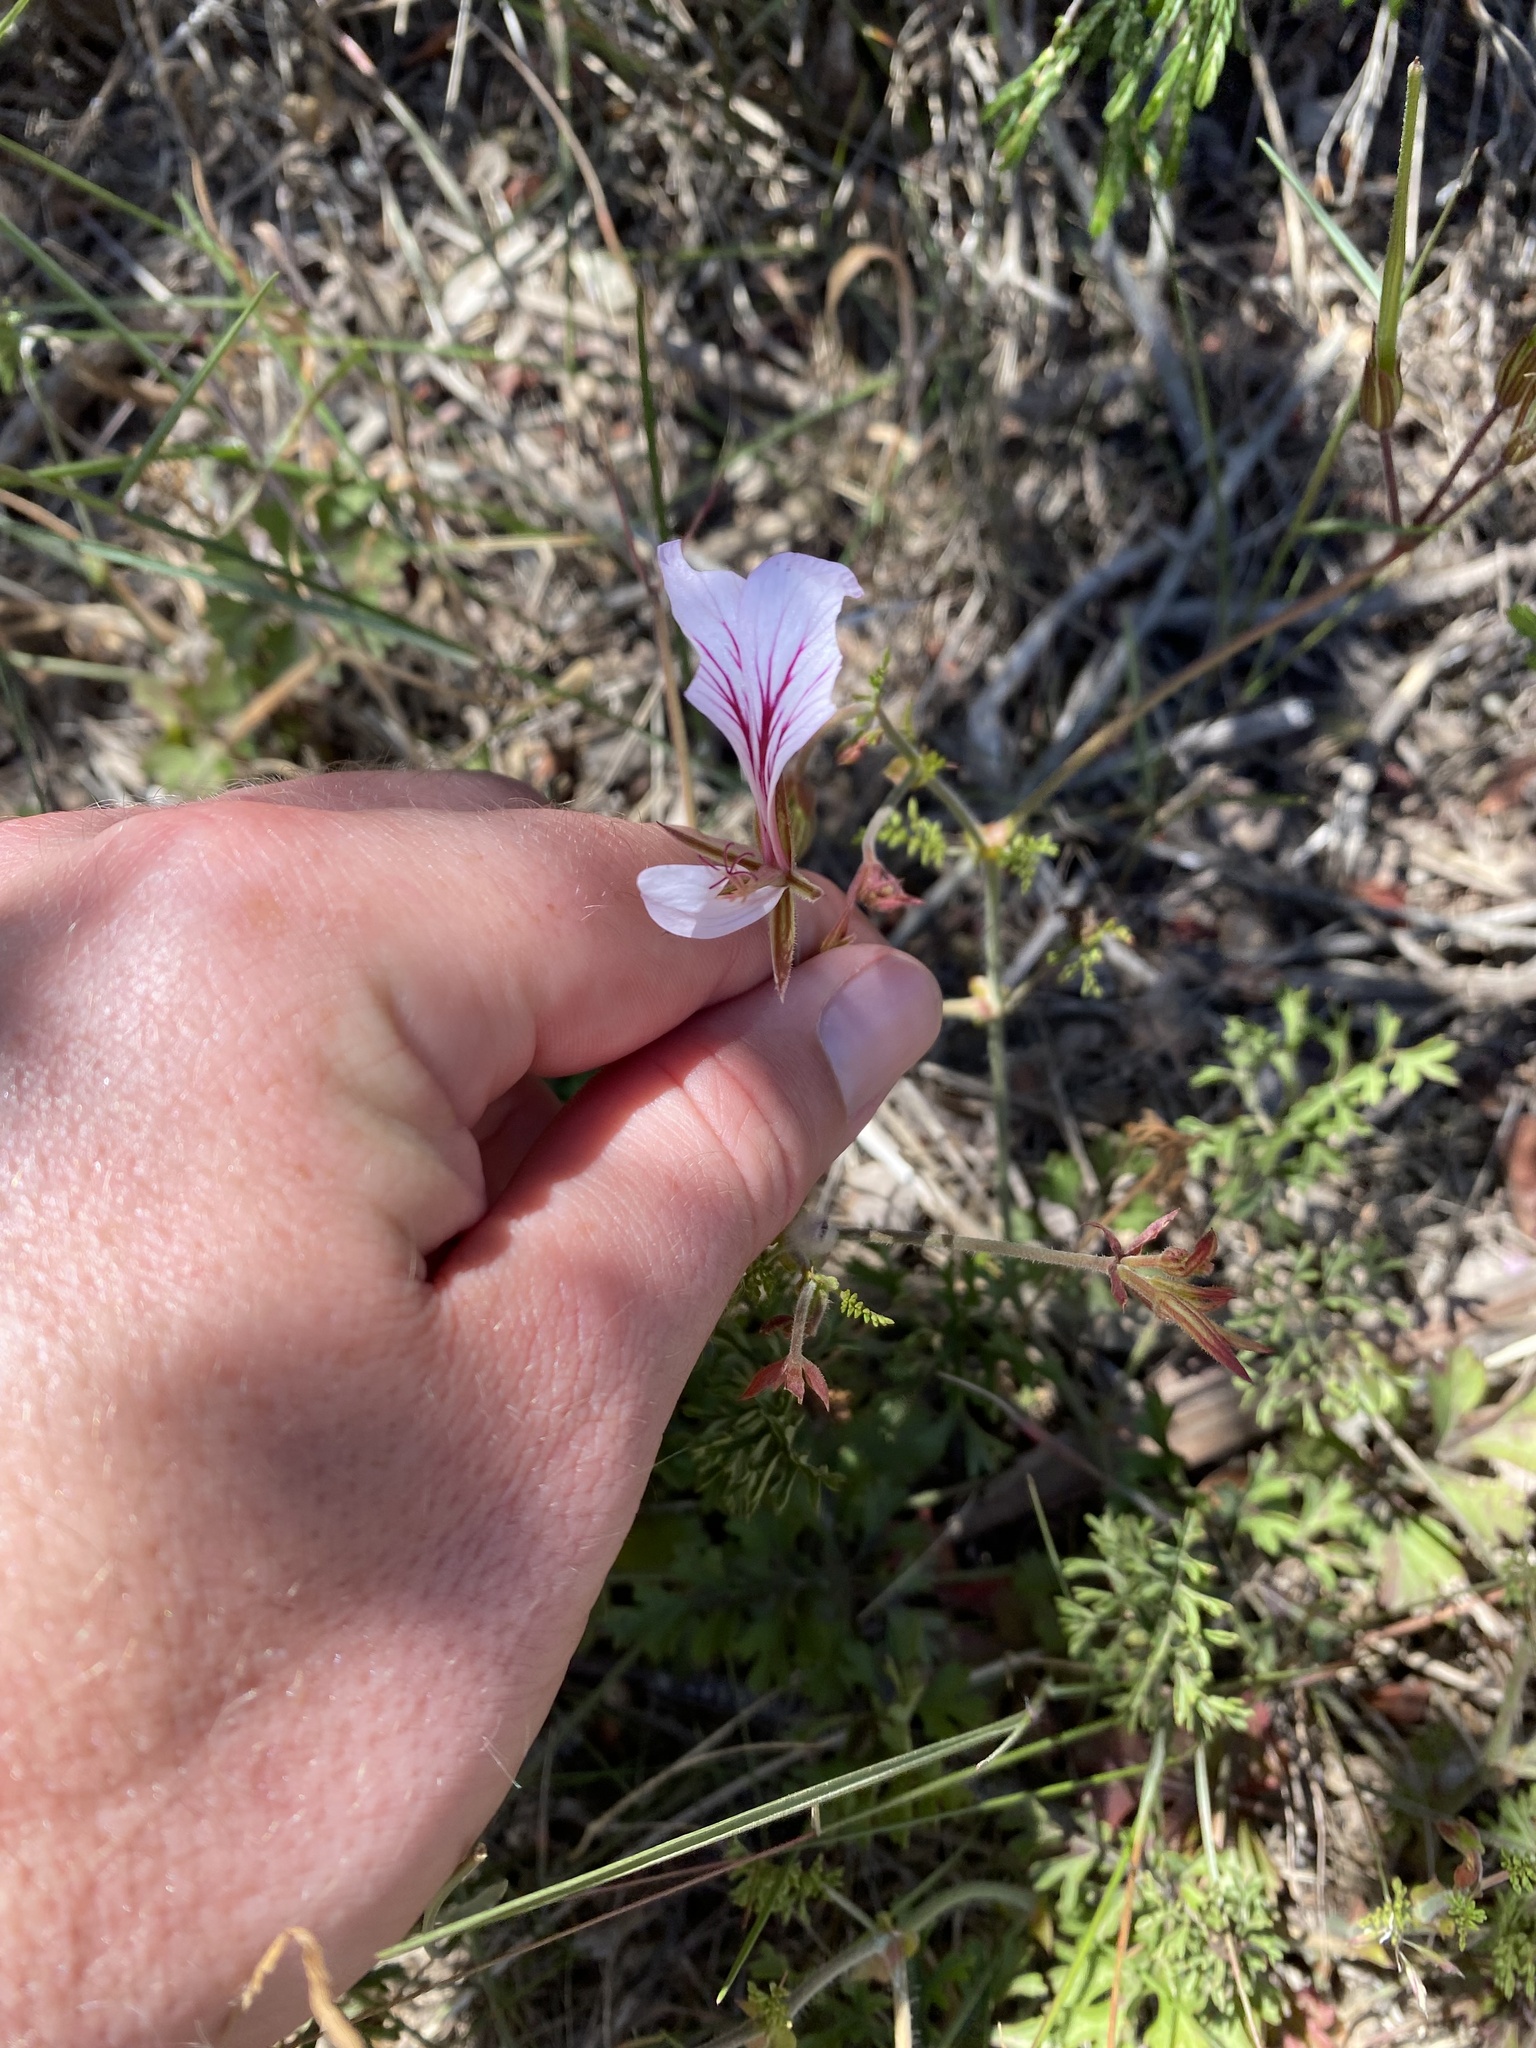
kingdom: Plantae
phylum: Tracheophyta
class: Magnoliopsida
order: Geraniales
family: Geraniaceae
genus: Pelargonium
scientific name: Pelargonium longicaule
